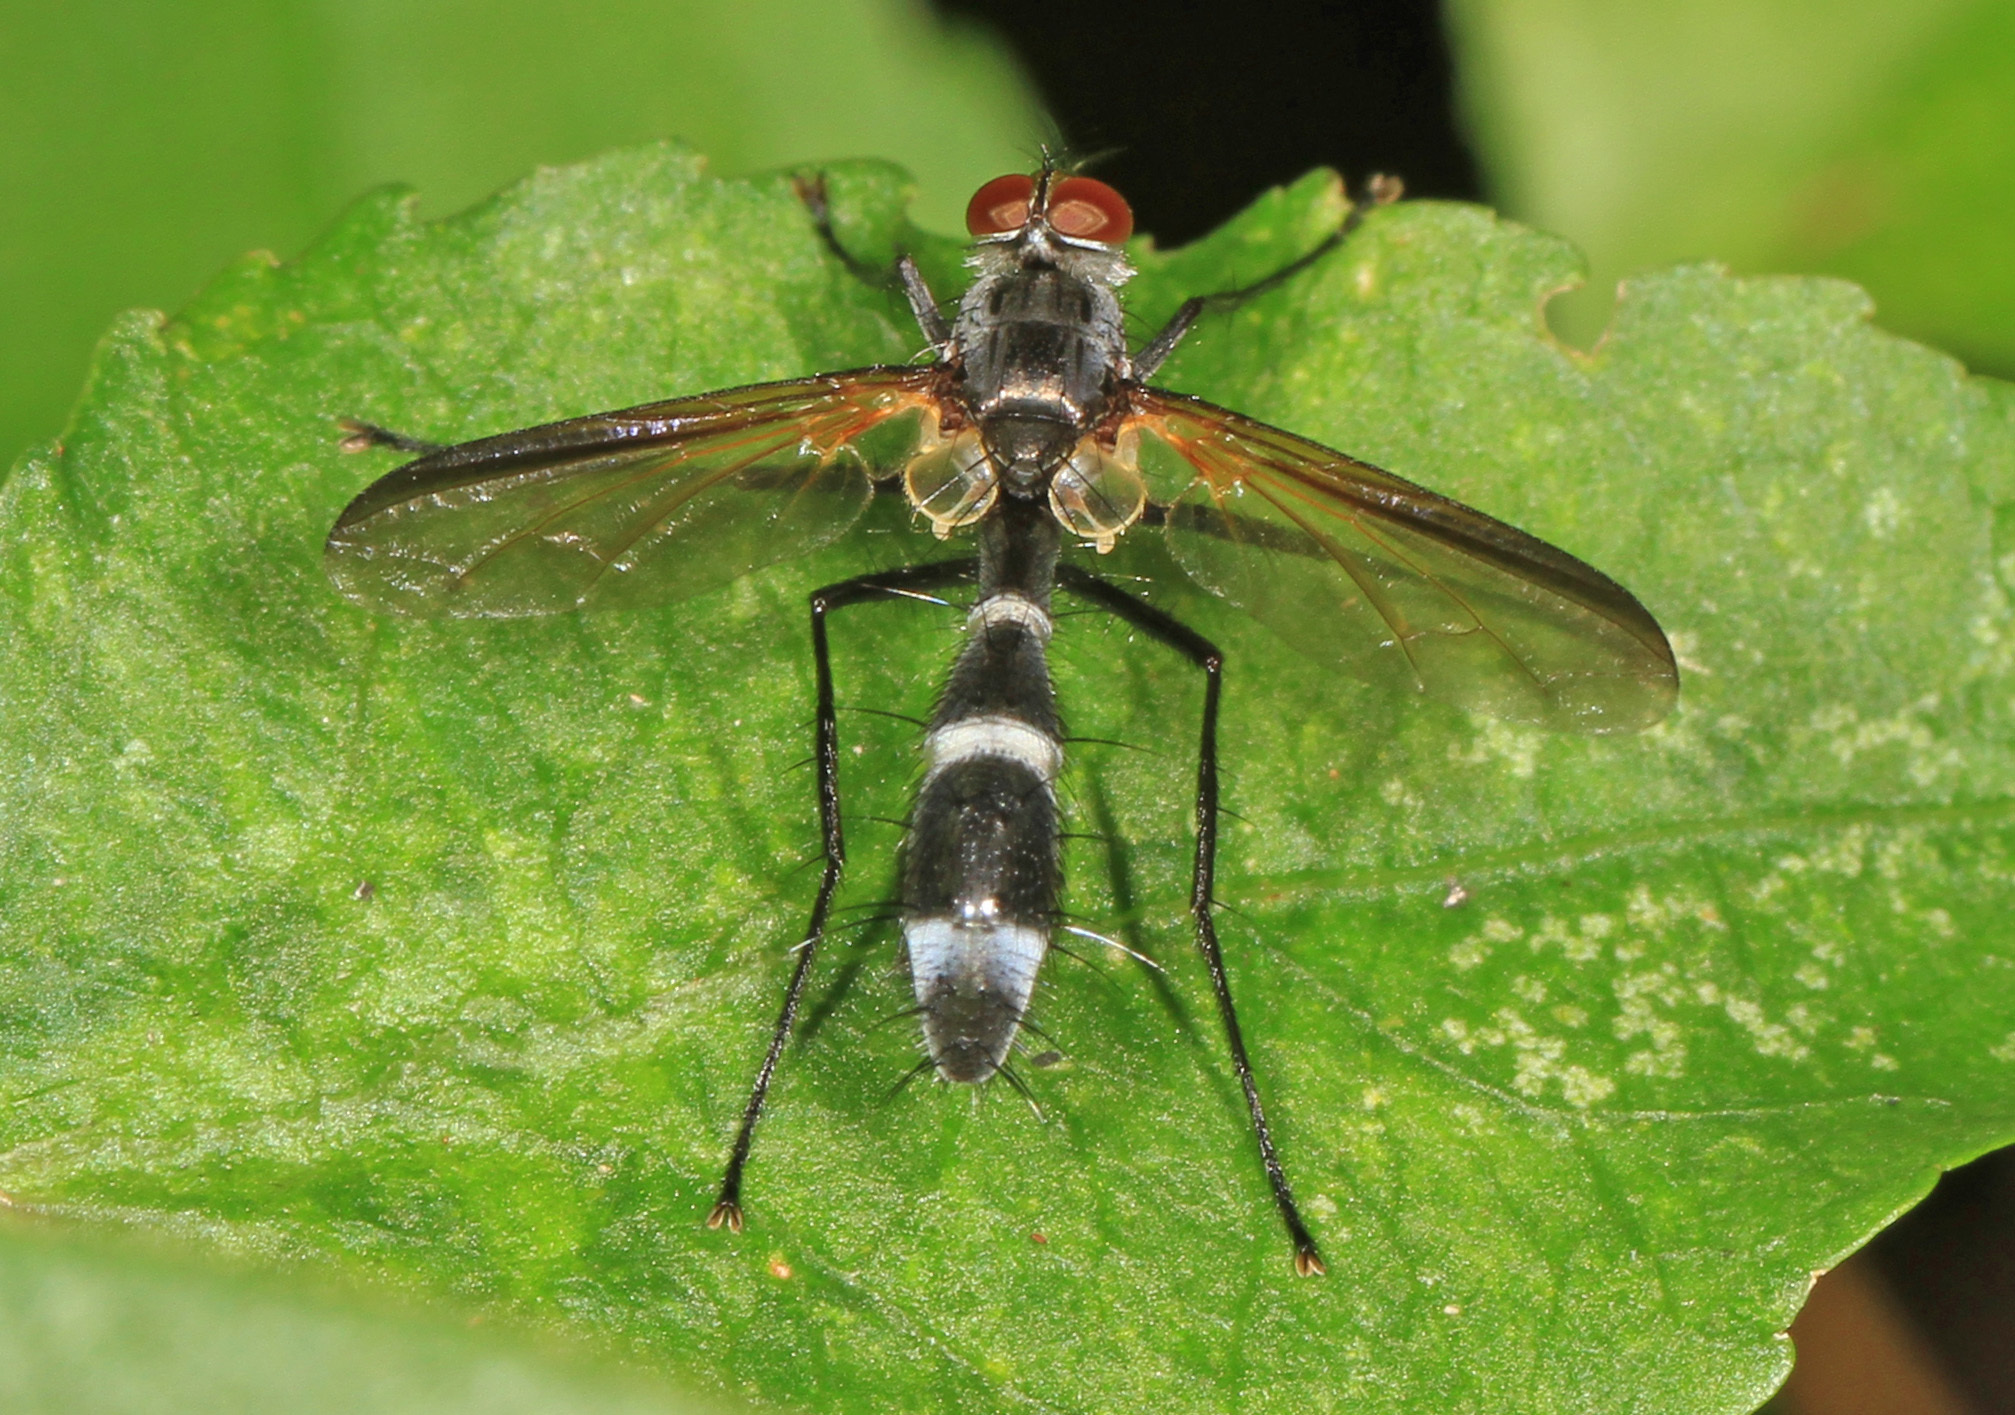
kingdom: Animalia
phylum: Arthropoda
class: Insecta
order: Diptera
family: Tachinidae
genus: Cordyligaster
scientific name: Cordyligaster septentrionalis
